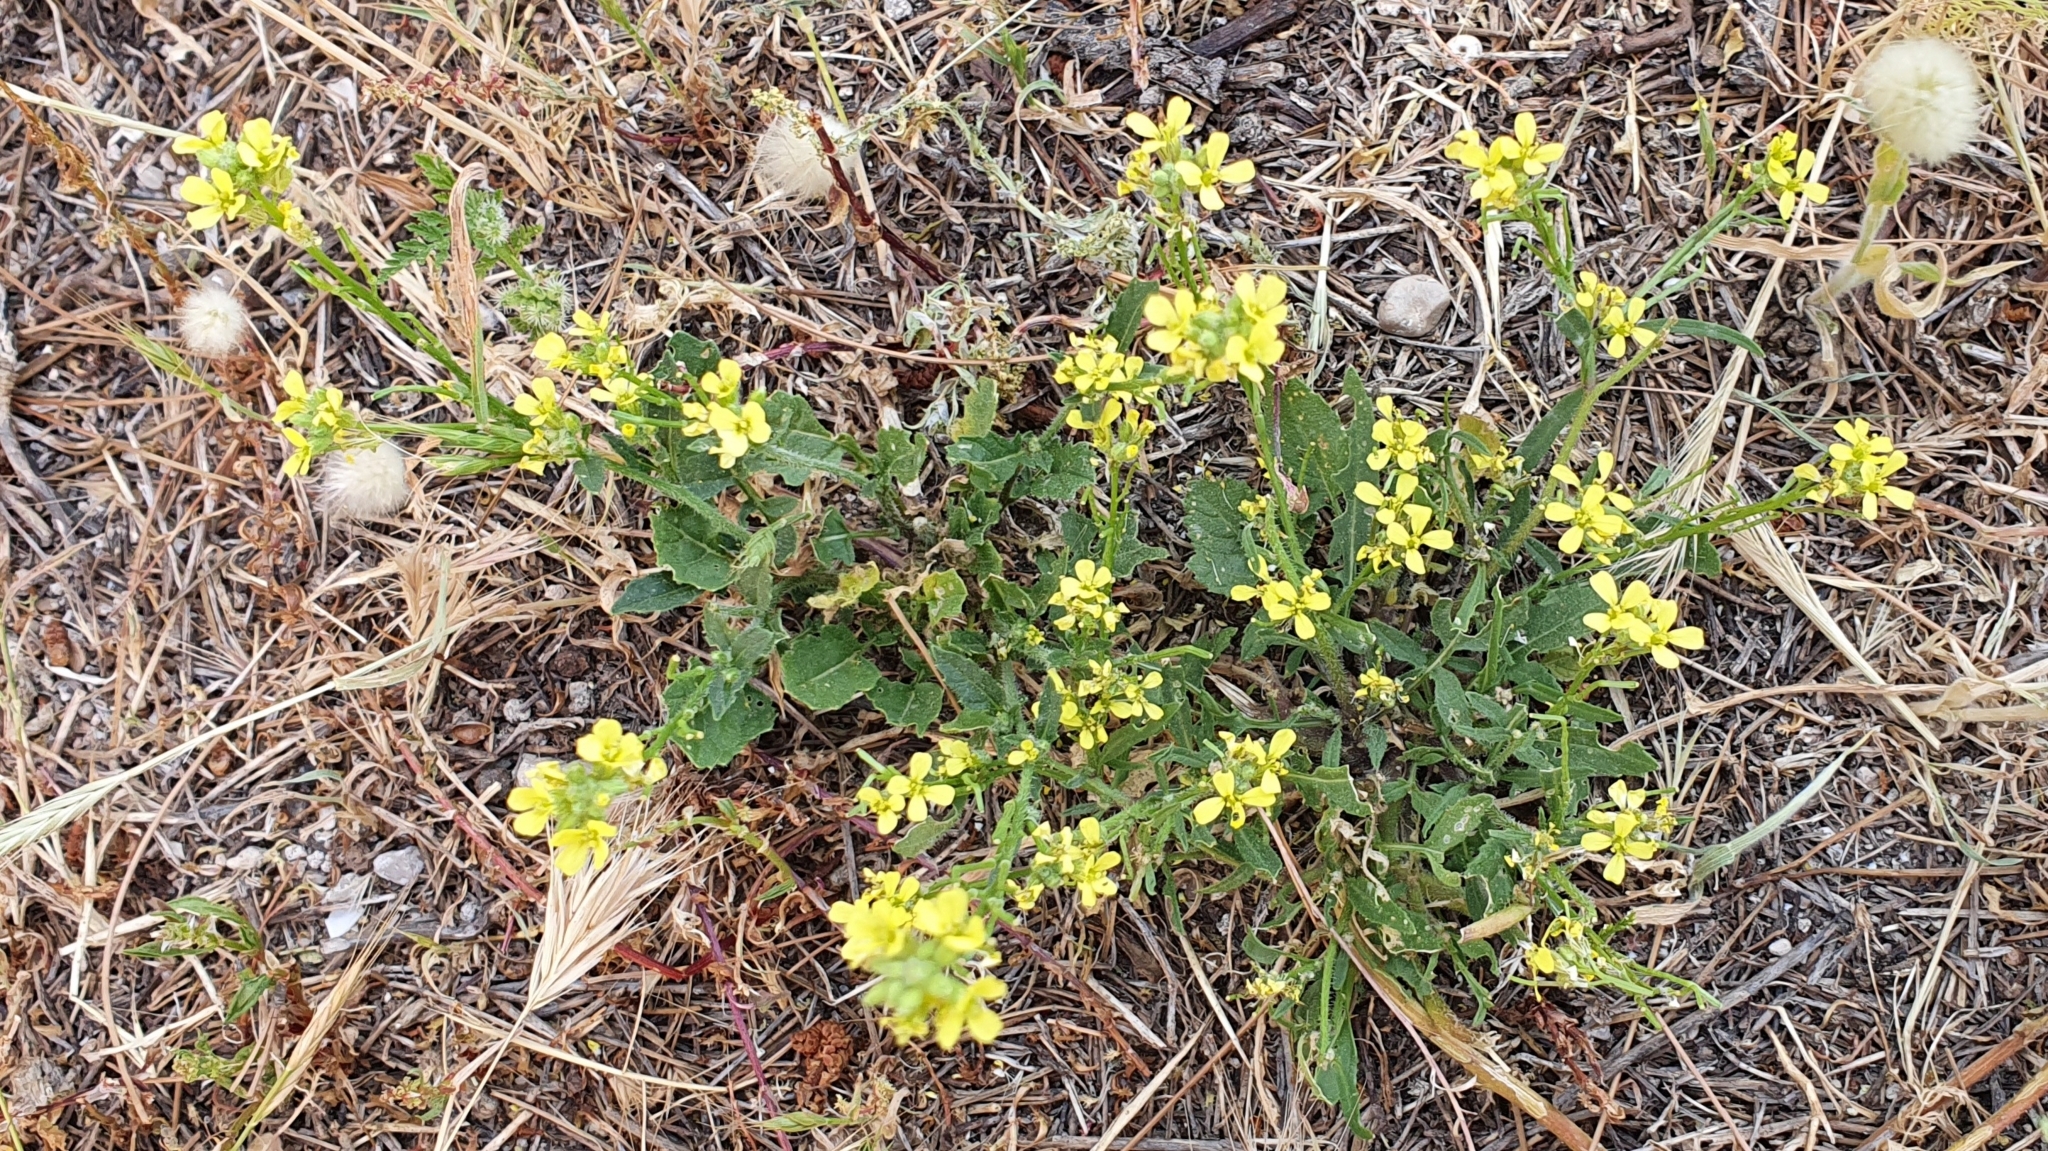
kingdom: Plantae
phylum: Tracheophyta
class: Magnoliopsida
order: Brassicales
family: Brassicaceae
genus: Hirschfeldia
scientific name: Hirschfeldia incana
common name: Hoary mustard
